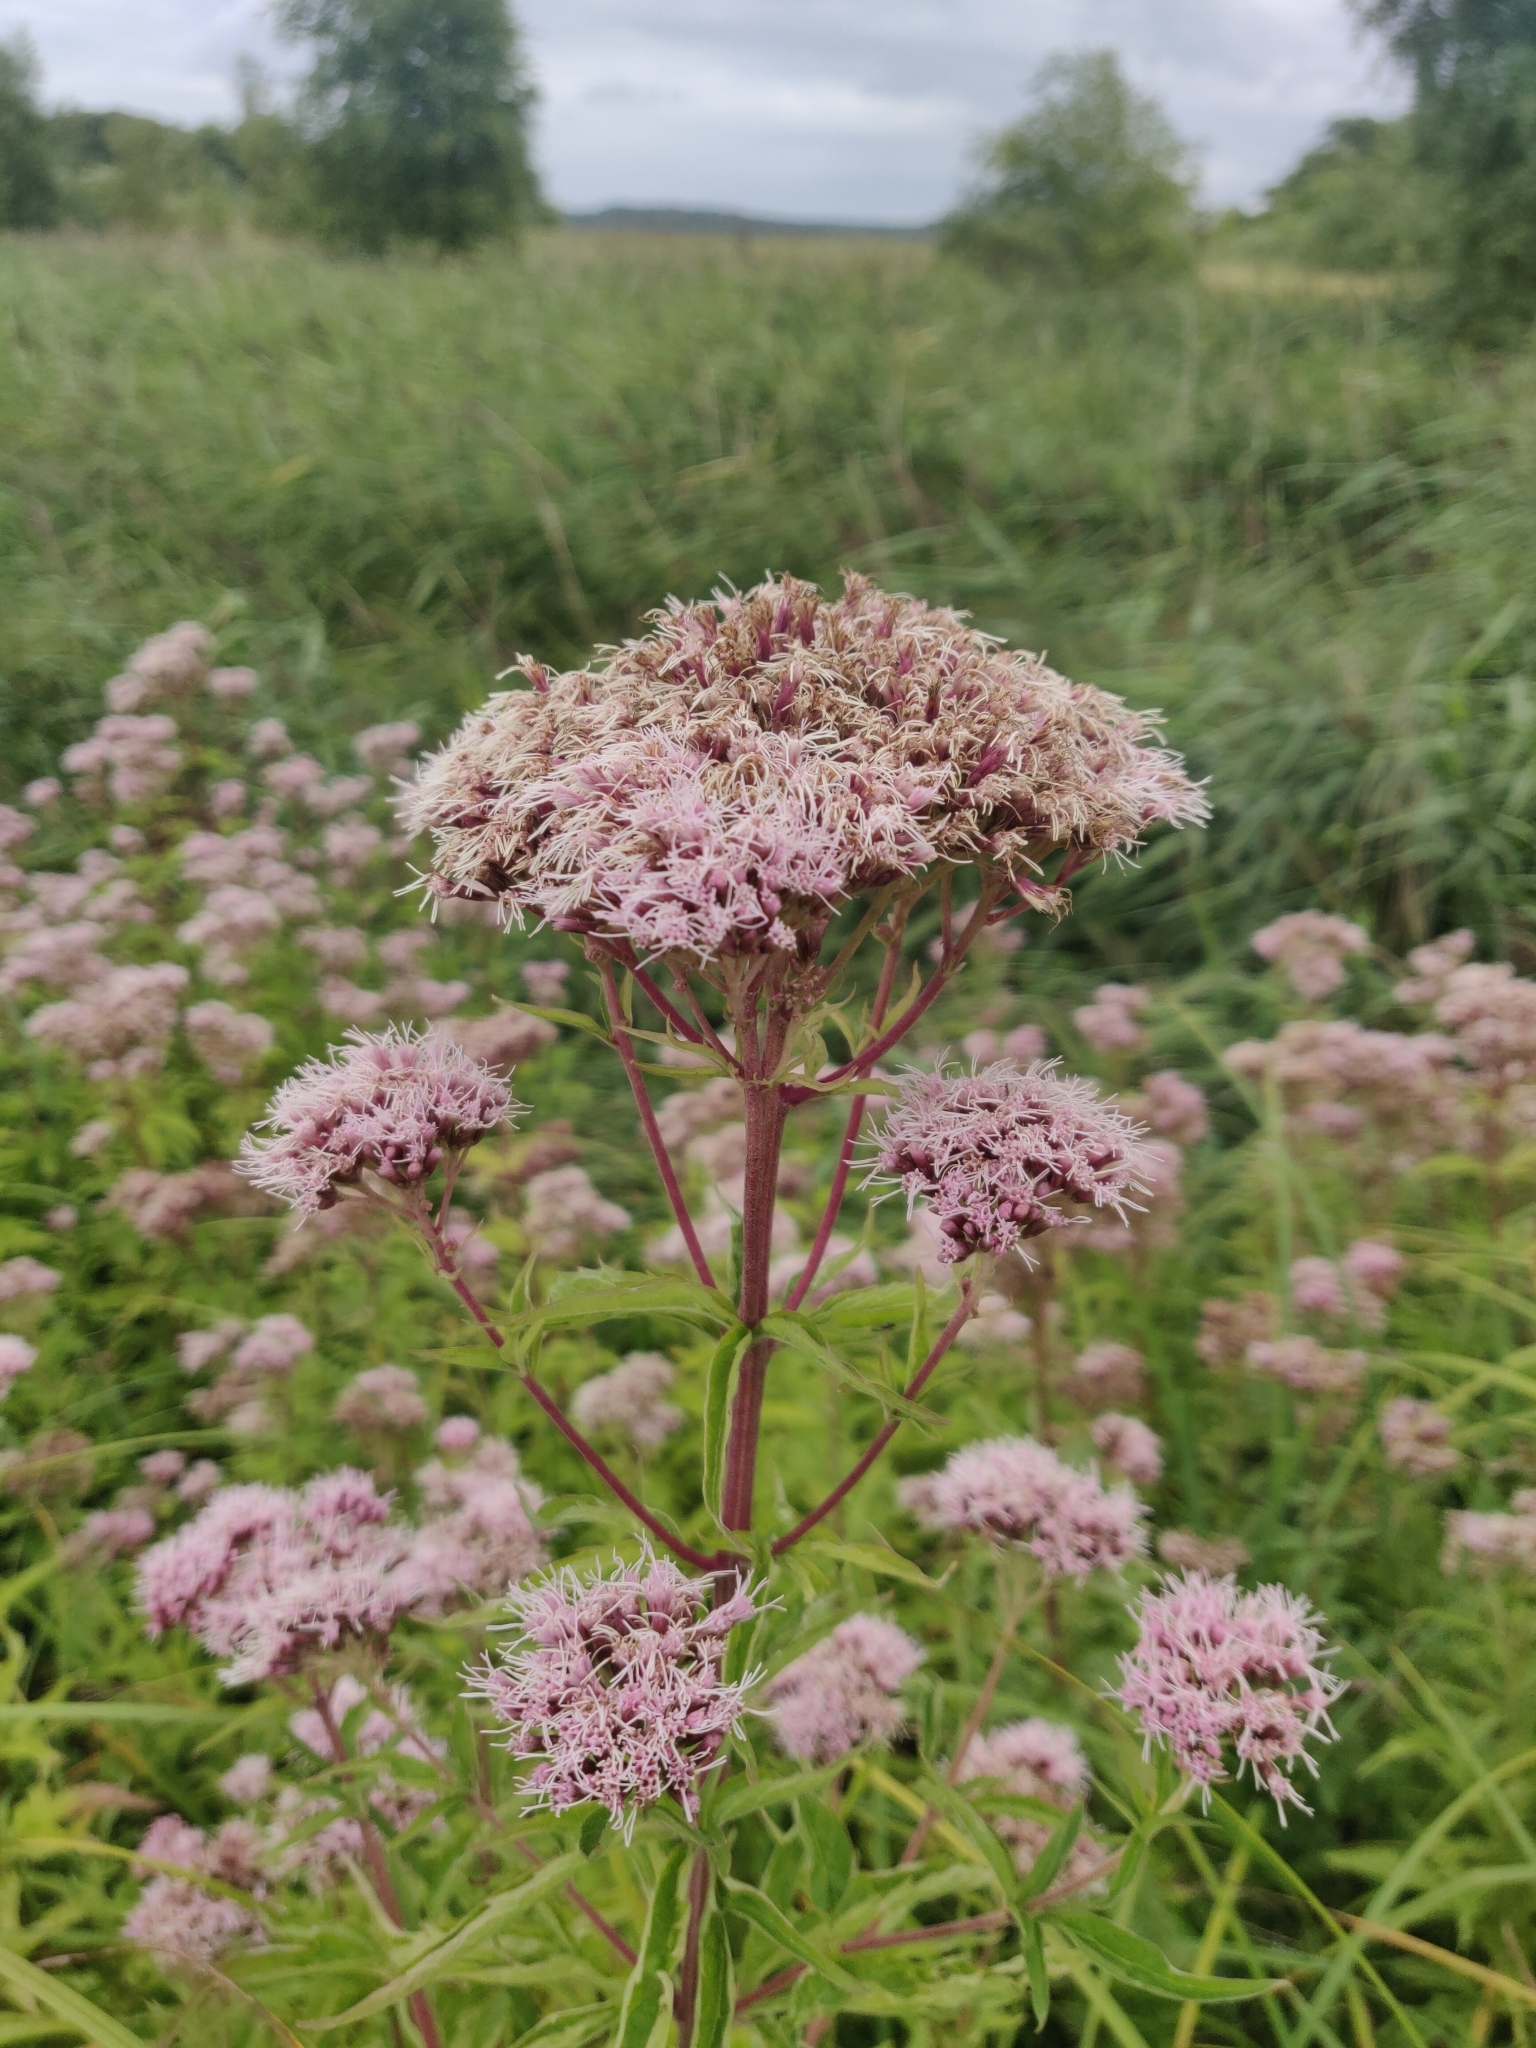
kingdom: Plantae
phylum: Tracheophyta
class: Magnoliopsida
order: Asterales
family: Asteraceae
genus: Eupatorium
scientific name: Eupatorium cannabinum
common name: Hemp-agrimony
